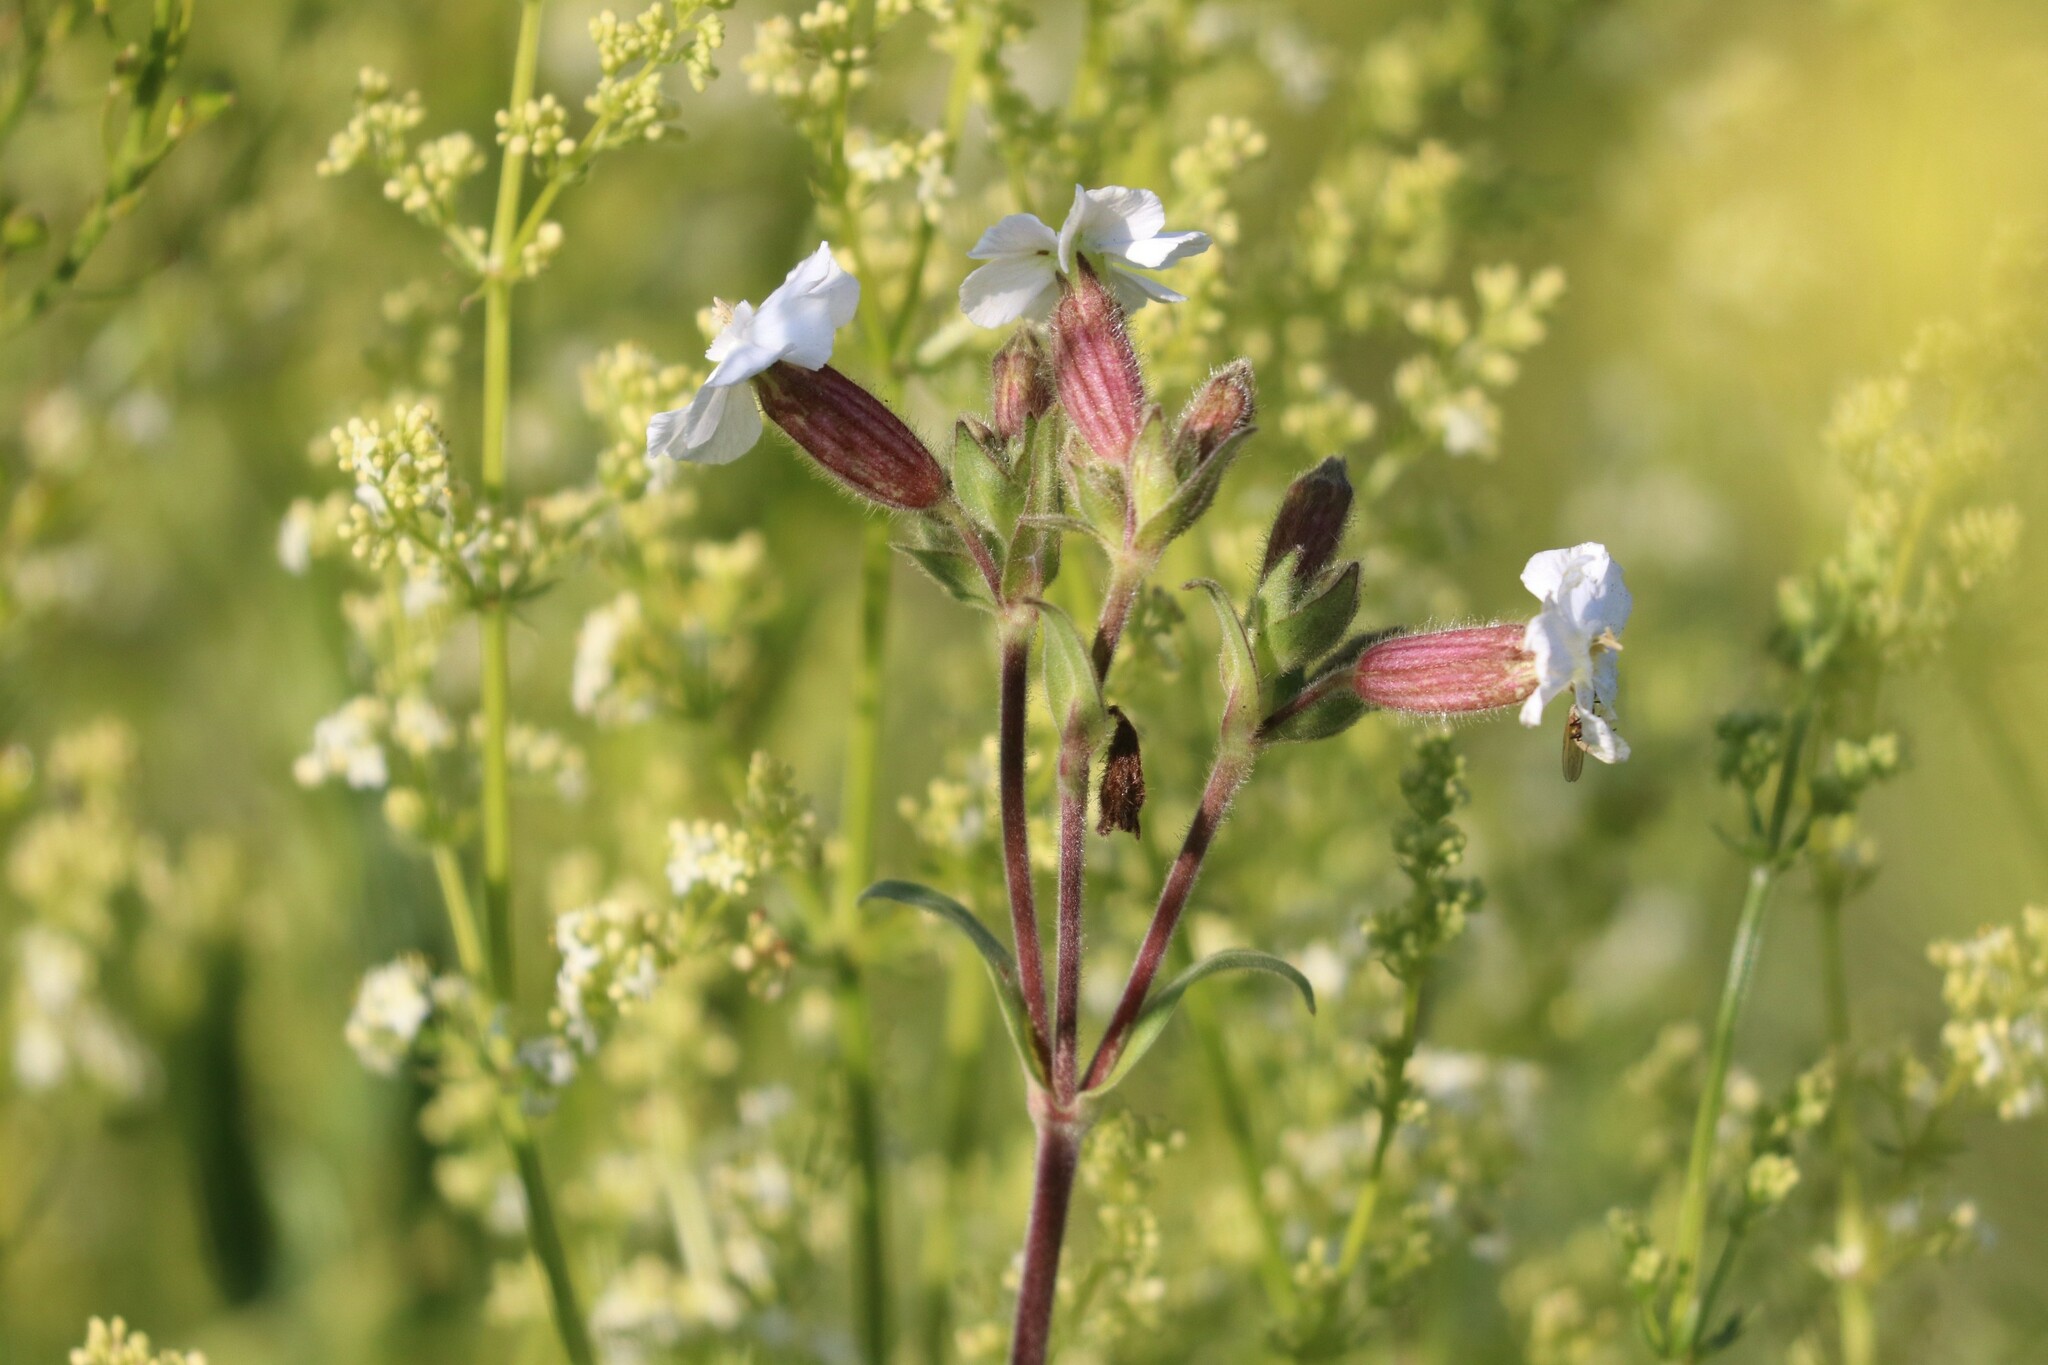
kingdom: Plantae
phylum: Tracheophyta
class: Magnoliopsida
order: Caryophyllales
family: Caryophyllaceae
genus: Silene
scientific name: Silene latifolia
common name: White campion
